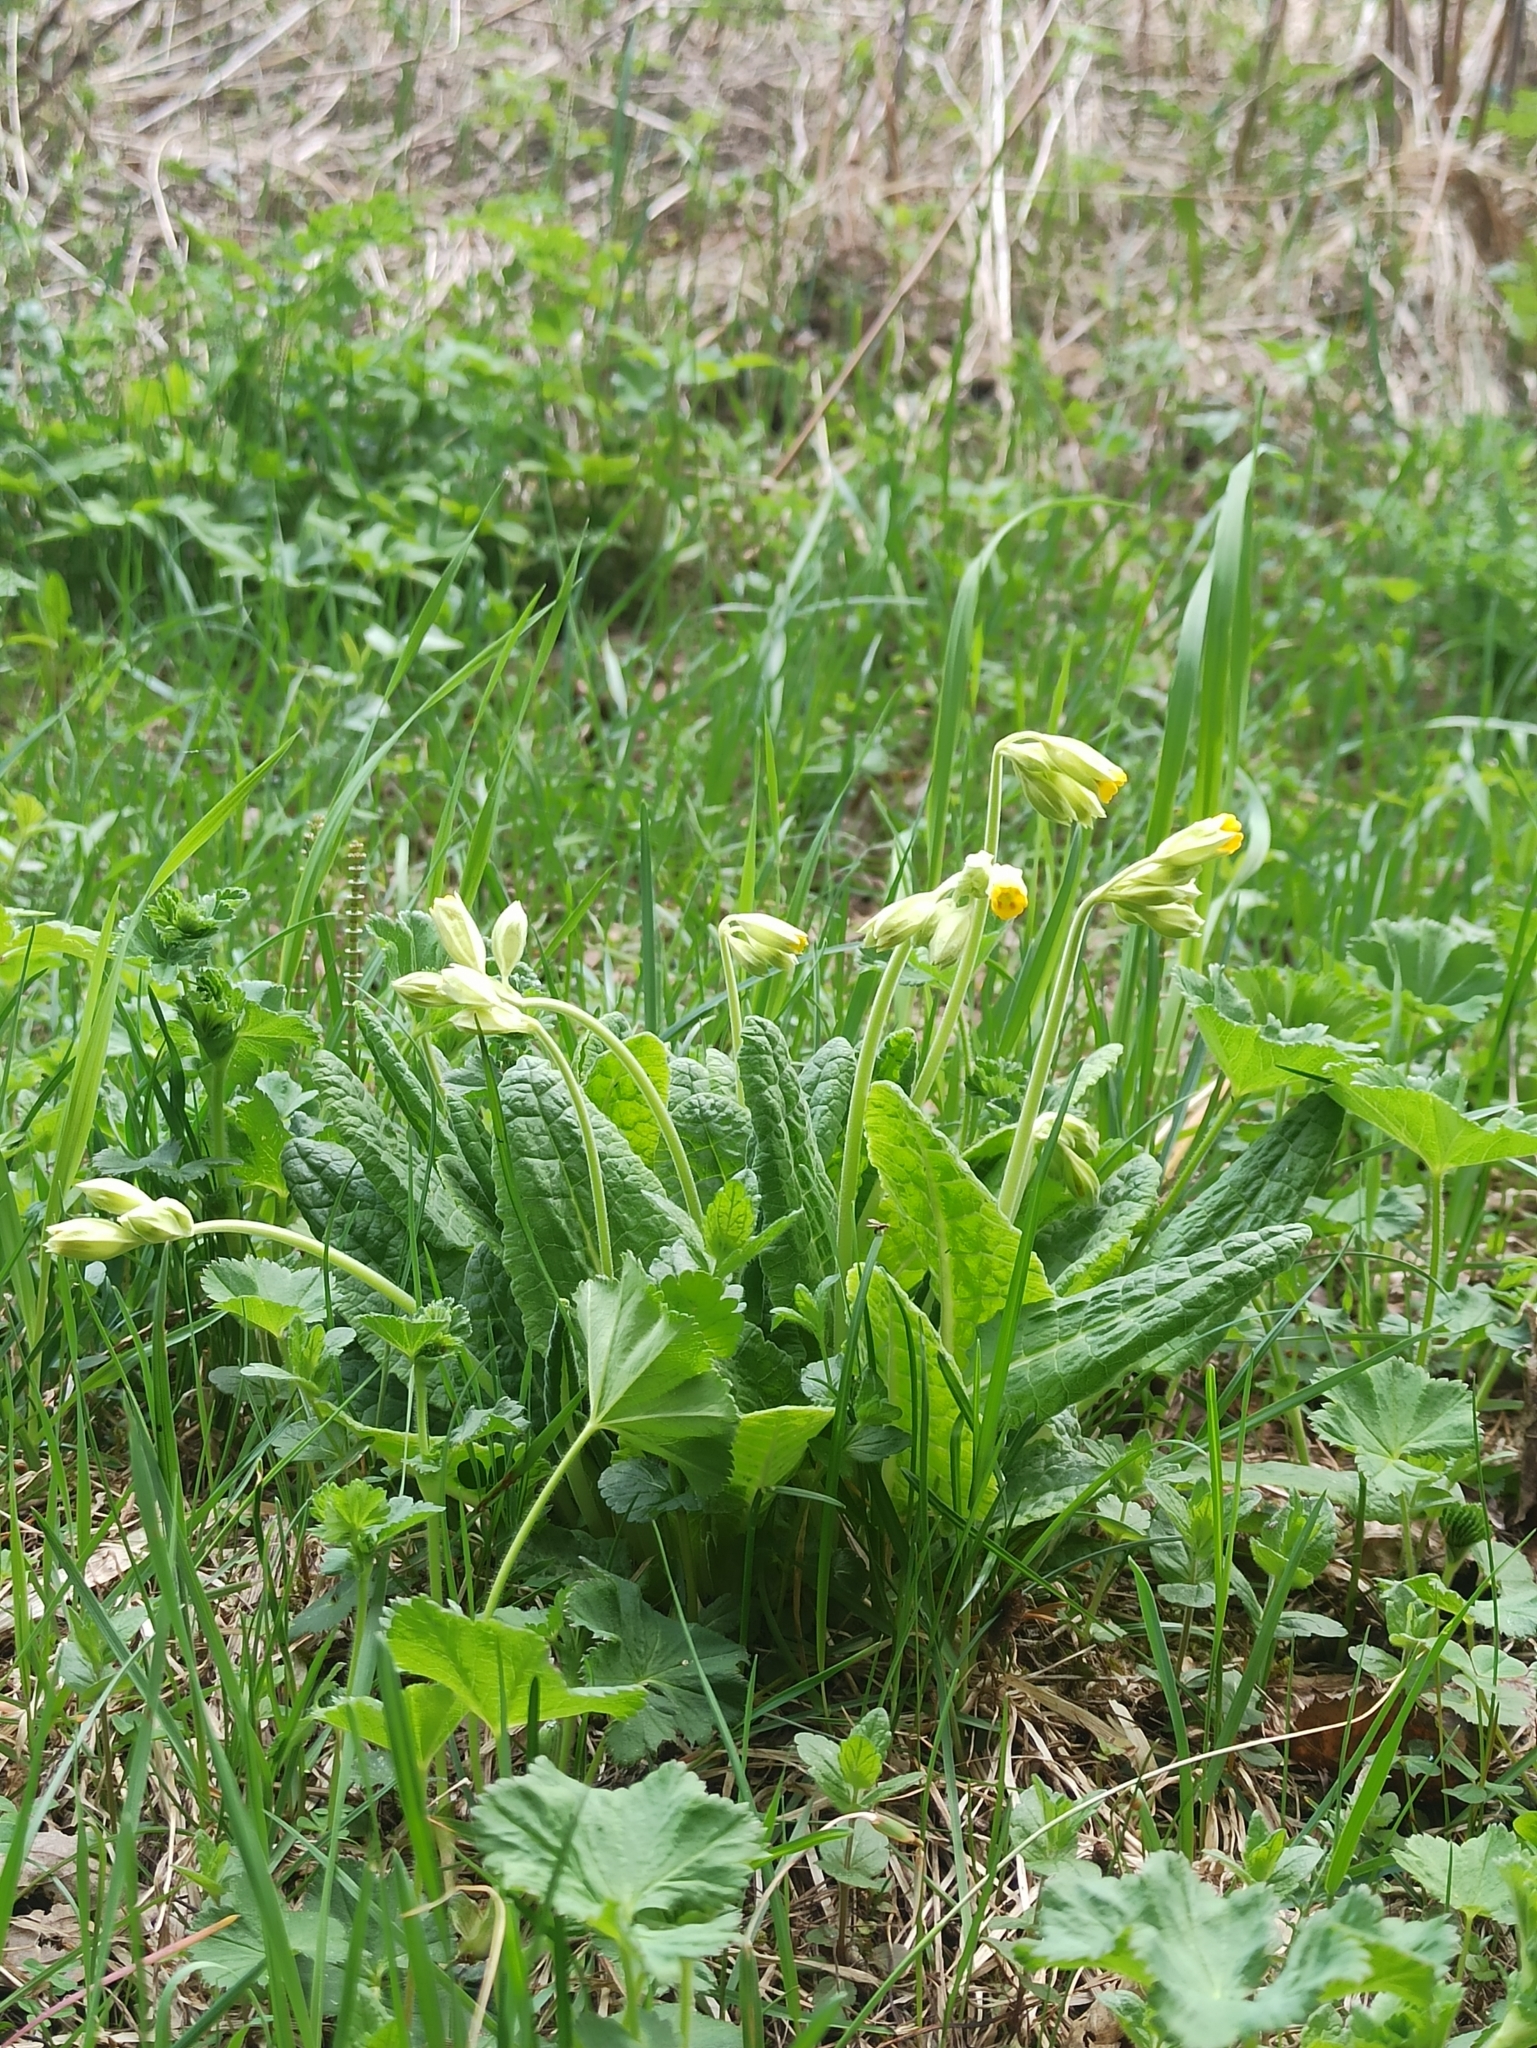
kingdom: Plantae
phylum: Tracheophyta
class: Magnoliopsida
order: Ericales
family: Primulaceae
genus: Primula
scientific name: Primula veris
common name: Cowslip
